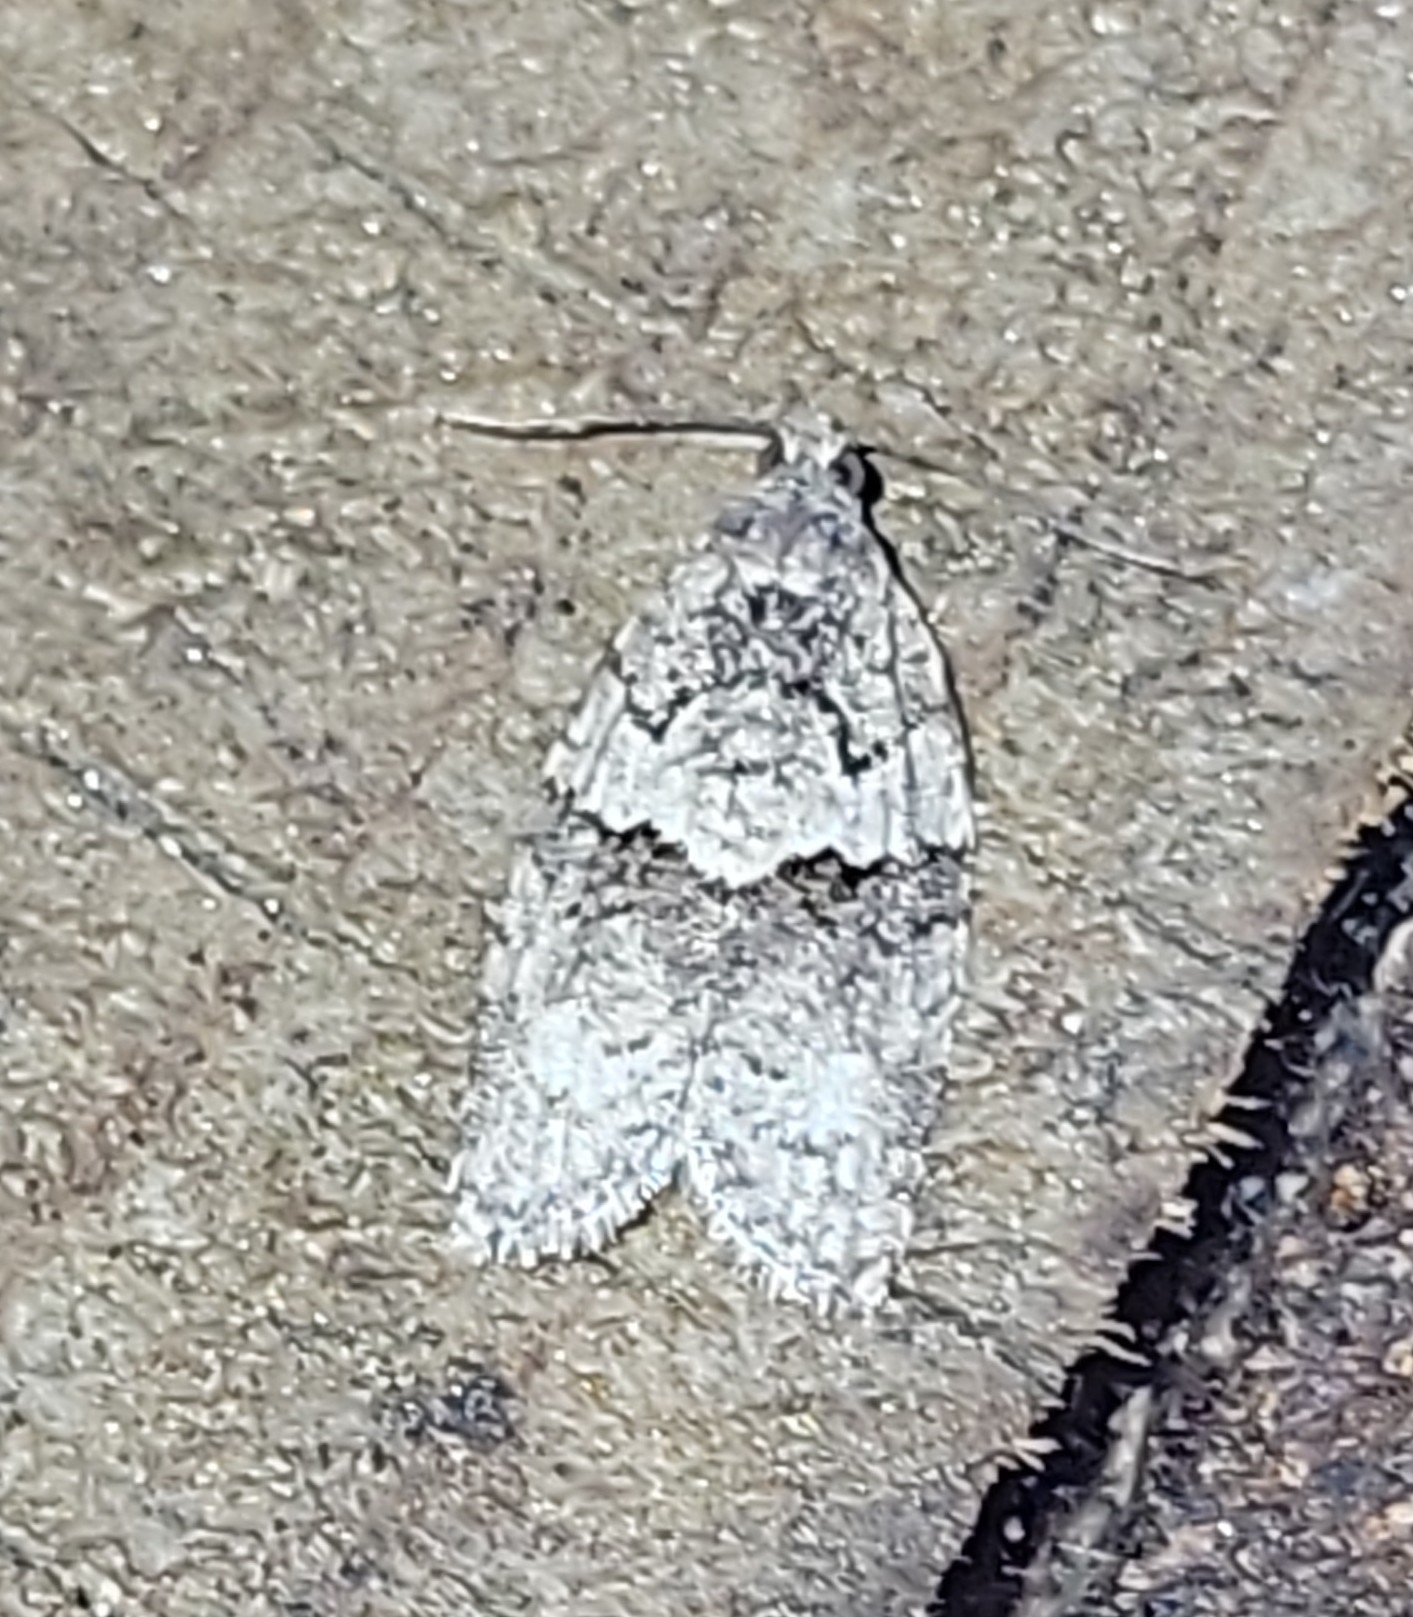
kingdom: Animalia
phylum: Arthropoda
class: Insecta
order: Lepidoptera
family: Tortricidae
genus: Syndemis
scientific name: Syndemis afflictana
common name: Gray leafroller moth
